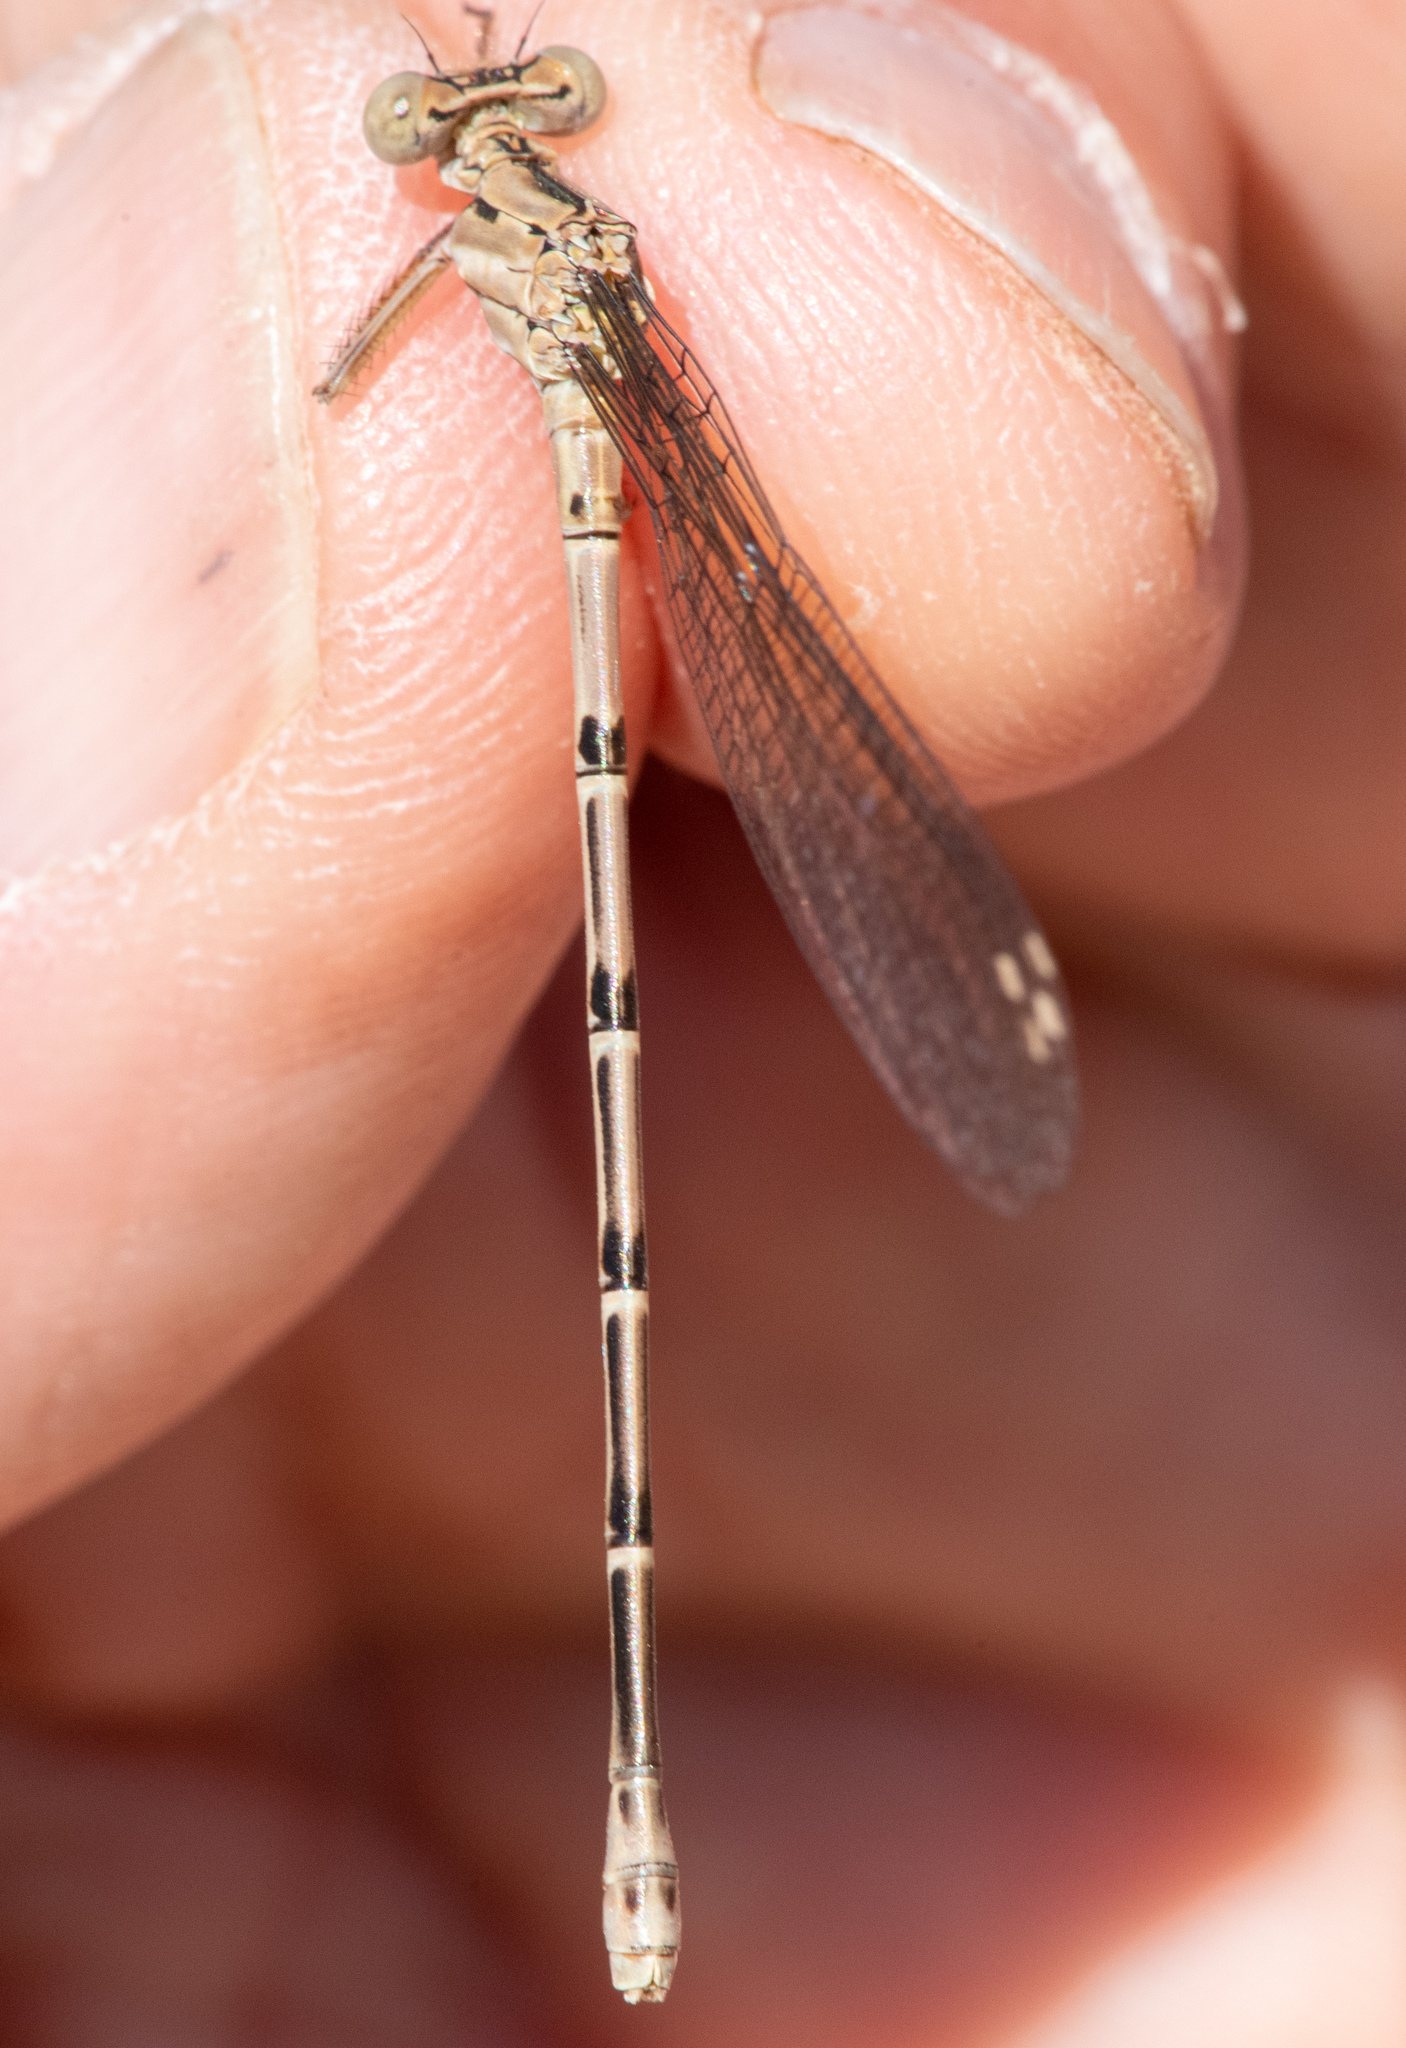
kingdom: Animalia
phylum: Arthropoda
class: Insecta
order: Odonata
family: Coenagrionidae
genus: Argia
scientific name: Argia emma
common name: Emma's dancer
